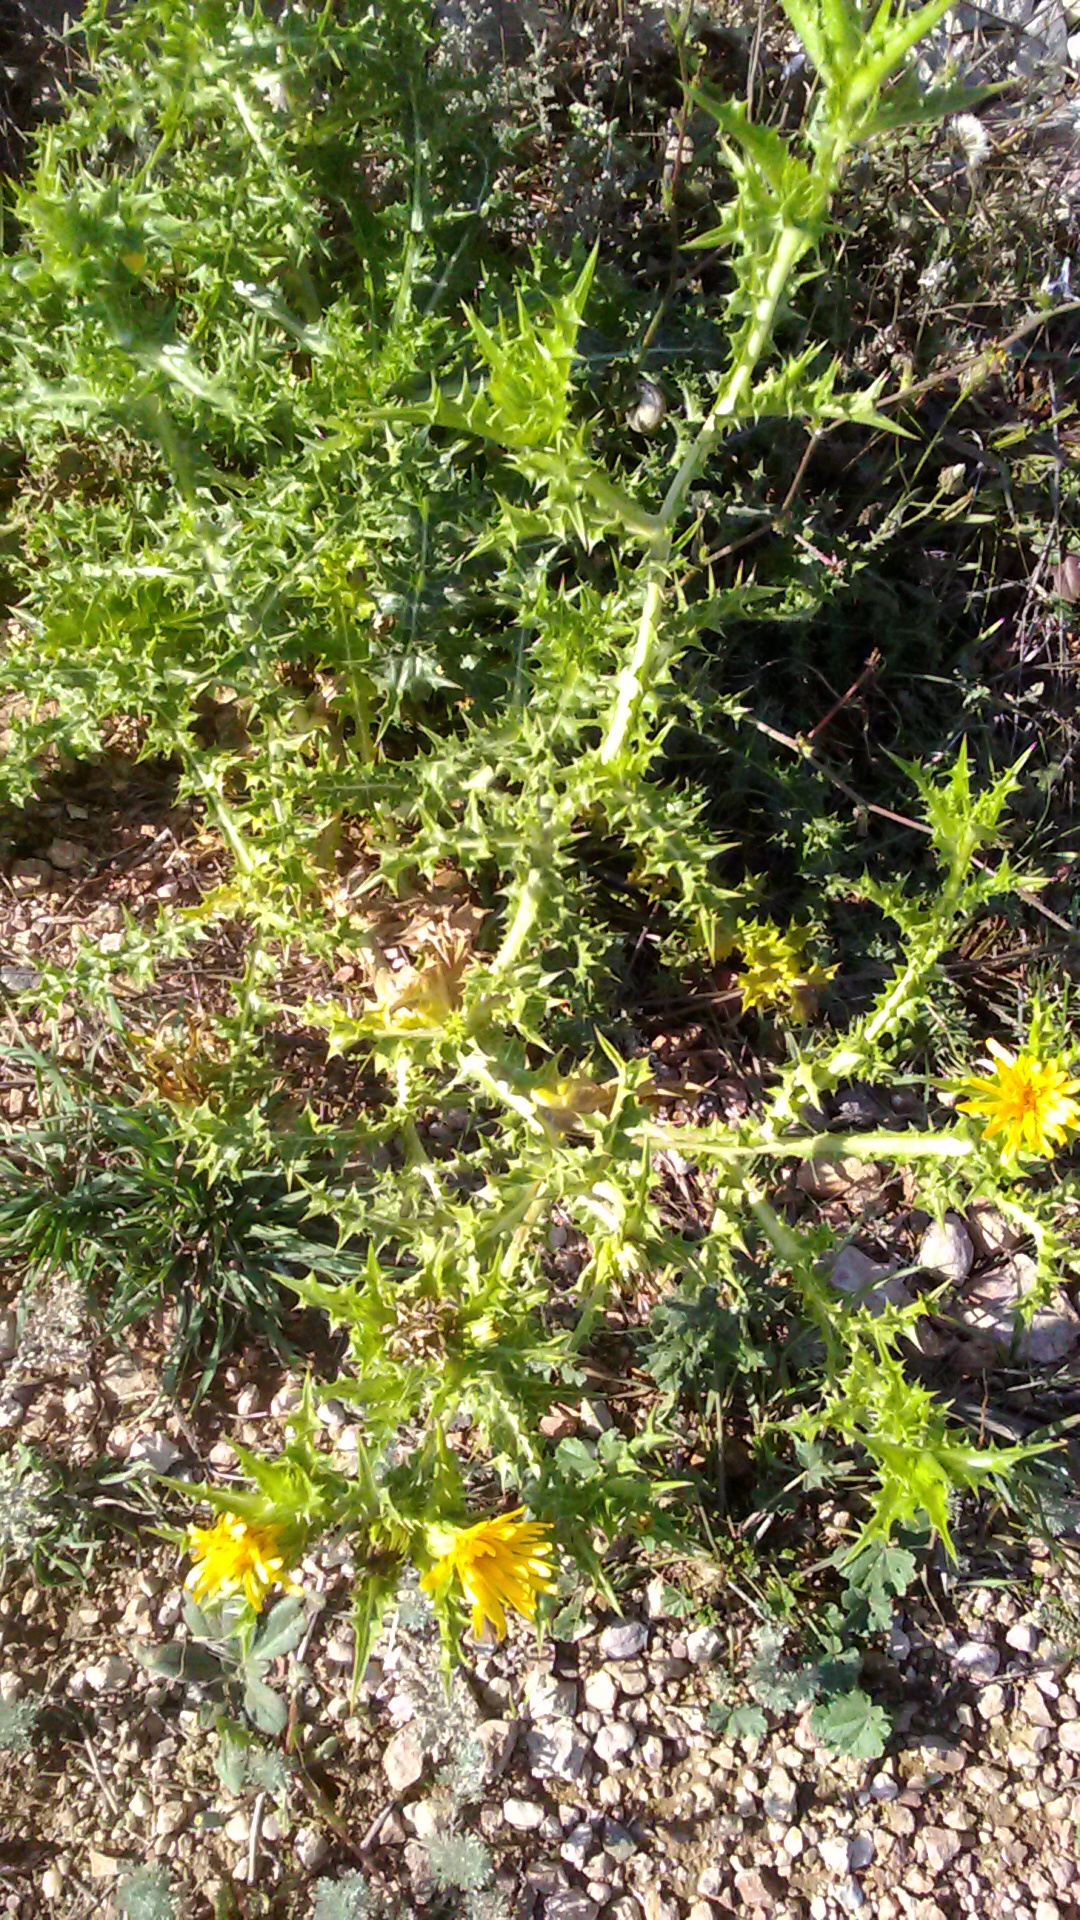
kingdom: Plantae
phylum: Tracheophyta
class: Magnoliopsida
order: Asterales
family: Asteraceae
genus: Scolymus
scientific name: Scolymus hispanicus
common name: Golden thistle
